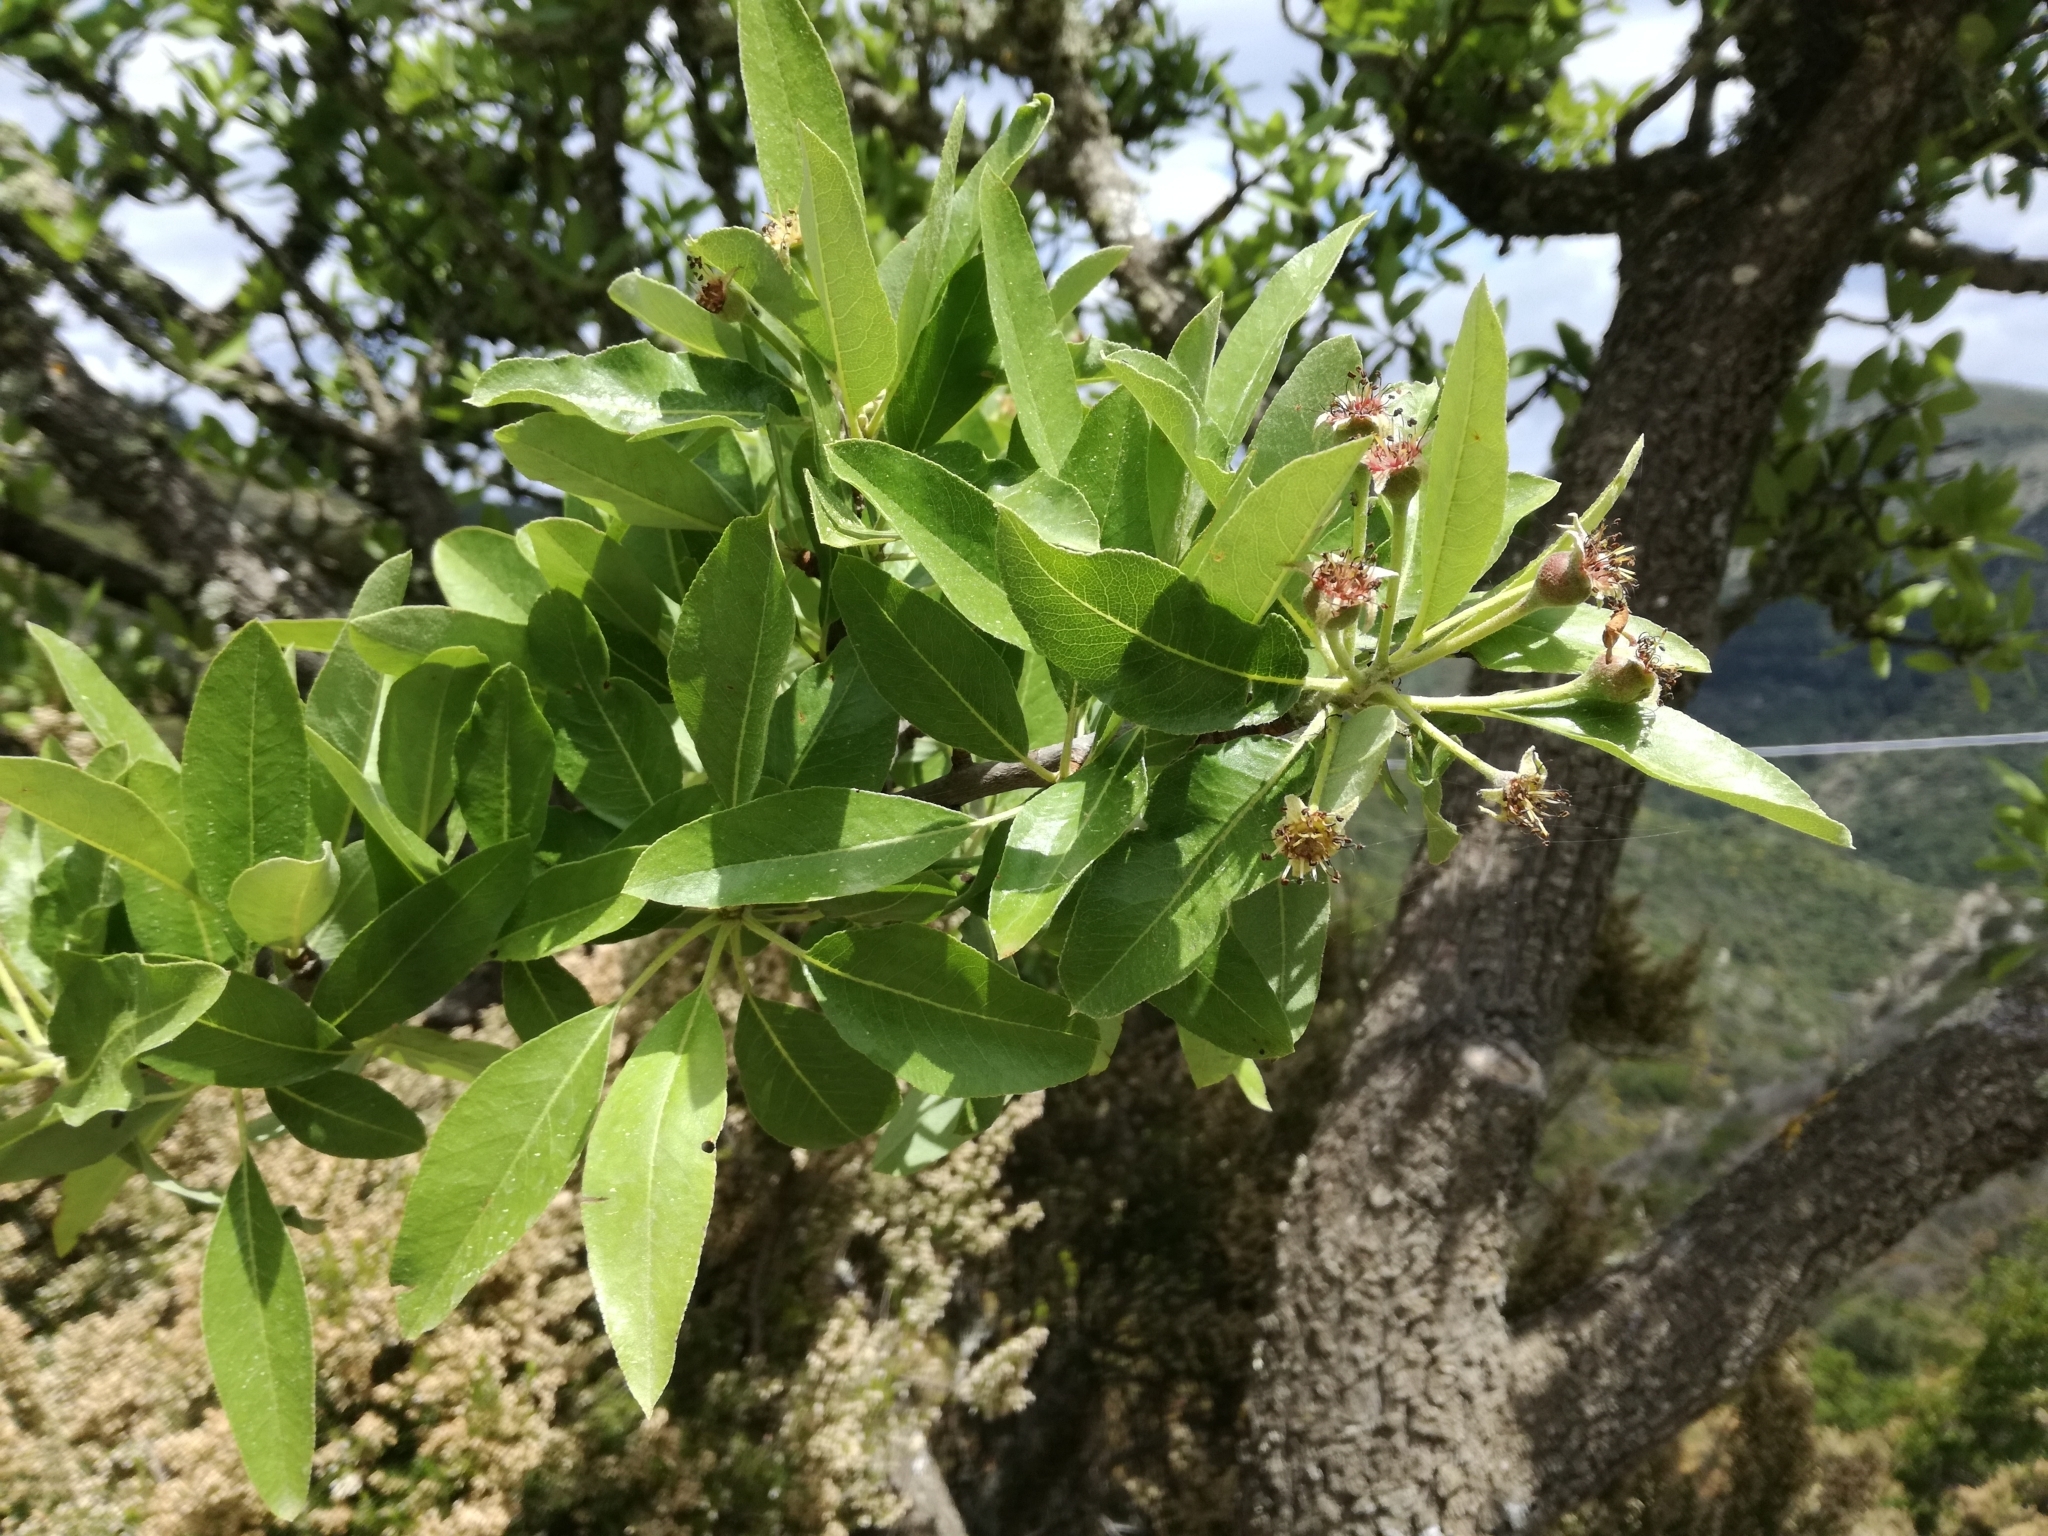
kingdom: Plantae
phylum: Tracheophyta
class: Magnoliopsida
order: Rosales
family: Rosaceae
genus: Pyrus
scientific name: Pyrus spinosa
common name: Almond-leaf pear
